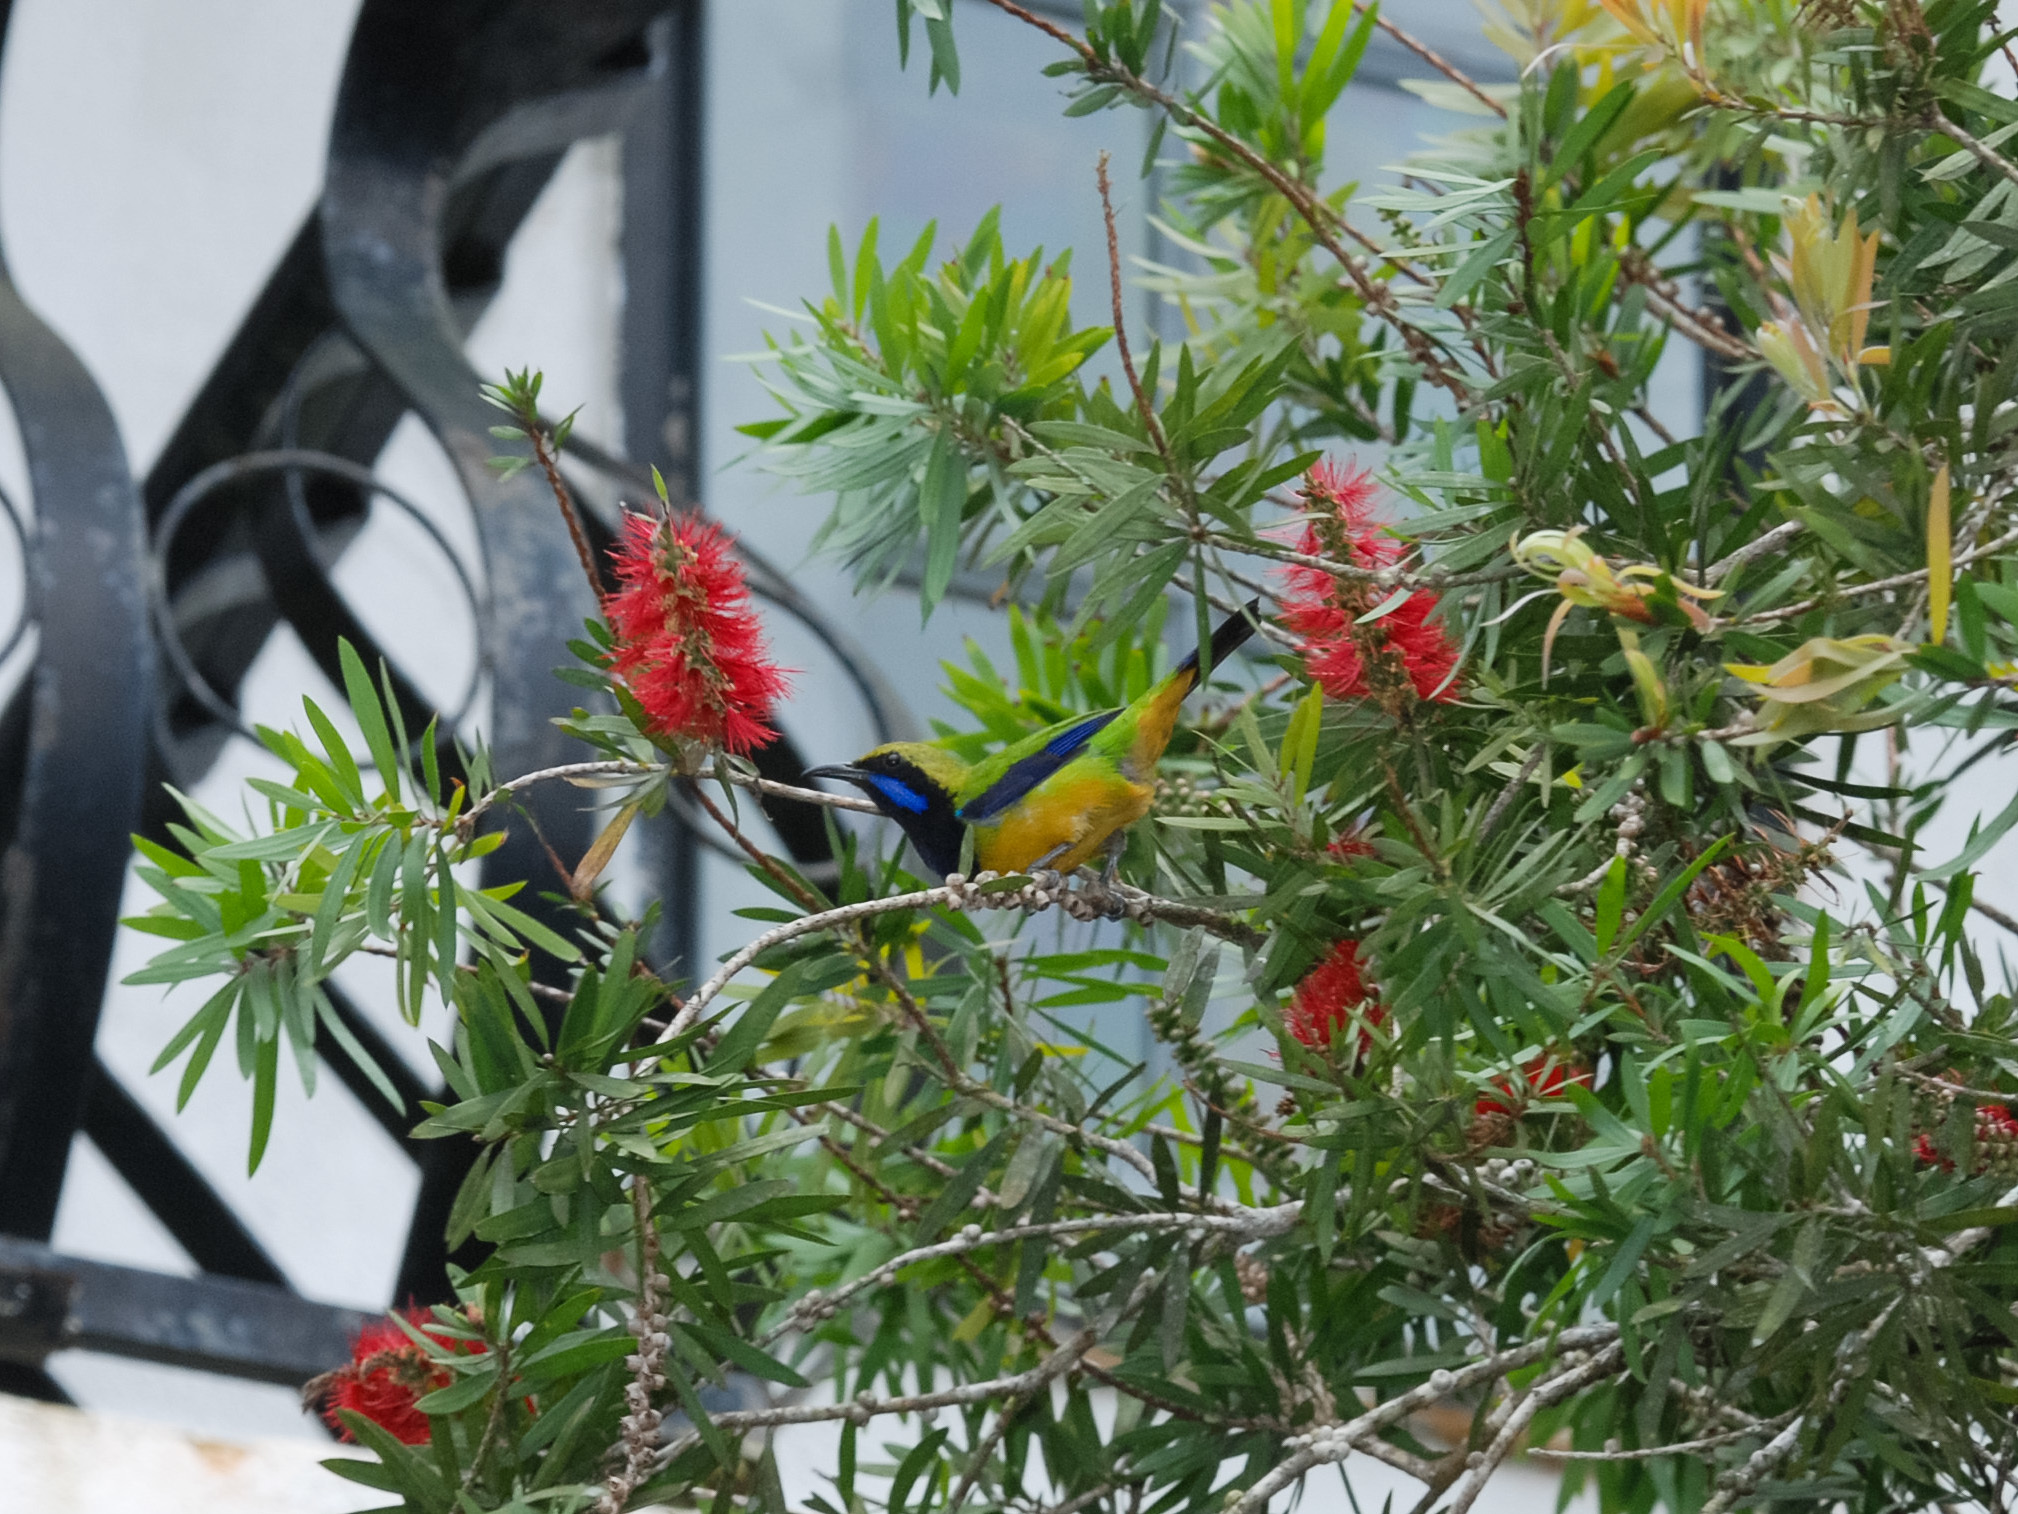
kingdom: Animalia
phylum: Chordata
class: Aves
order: Passeriformes
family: Chloropseidae
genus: Chloropsis
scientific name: Chloropsis hardwickii
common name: Orange-bellied leafbird
